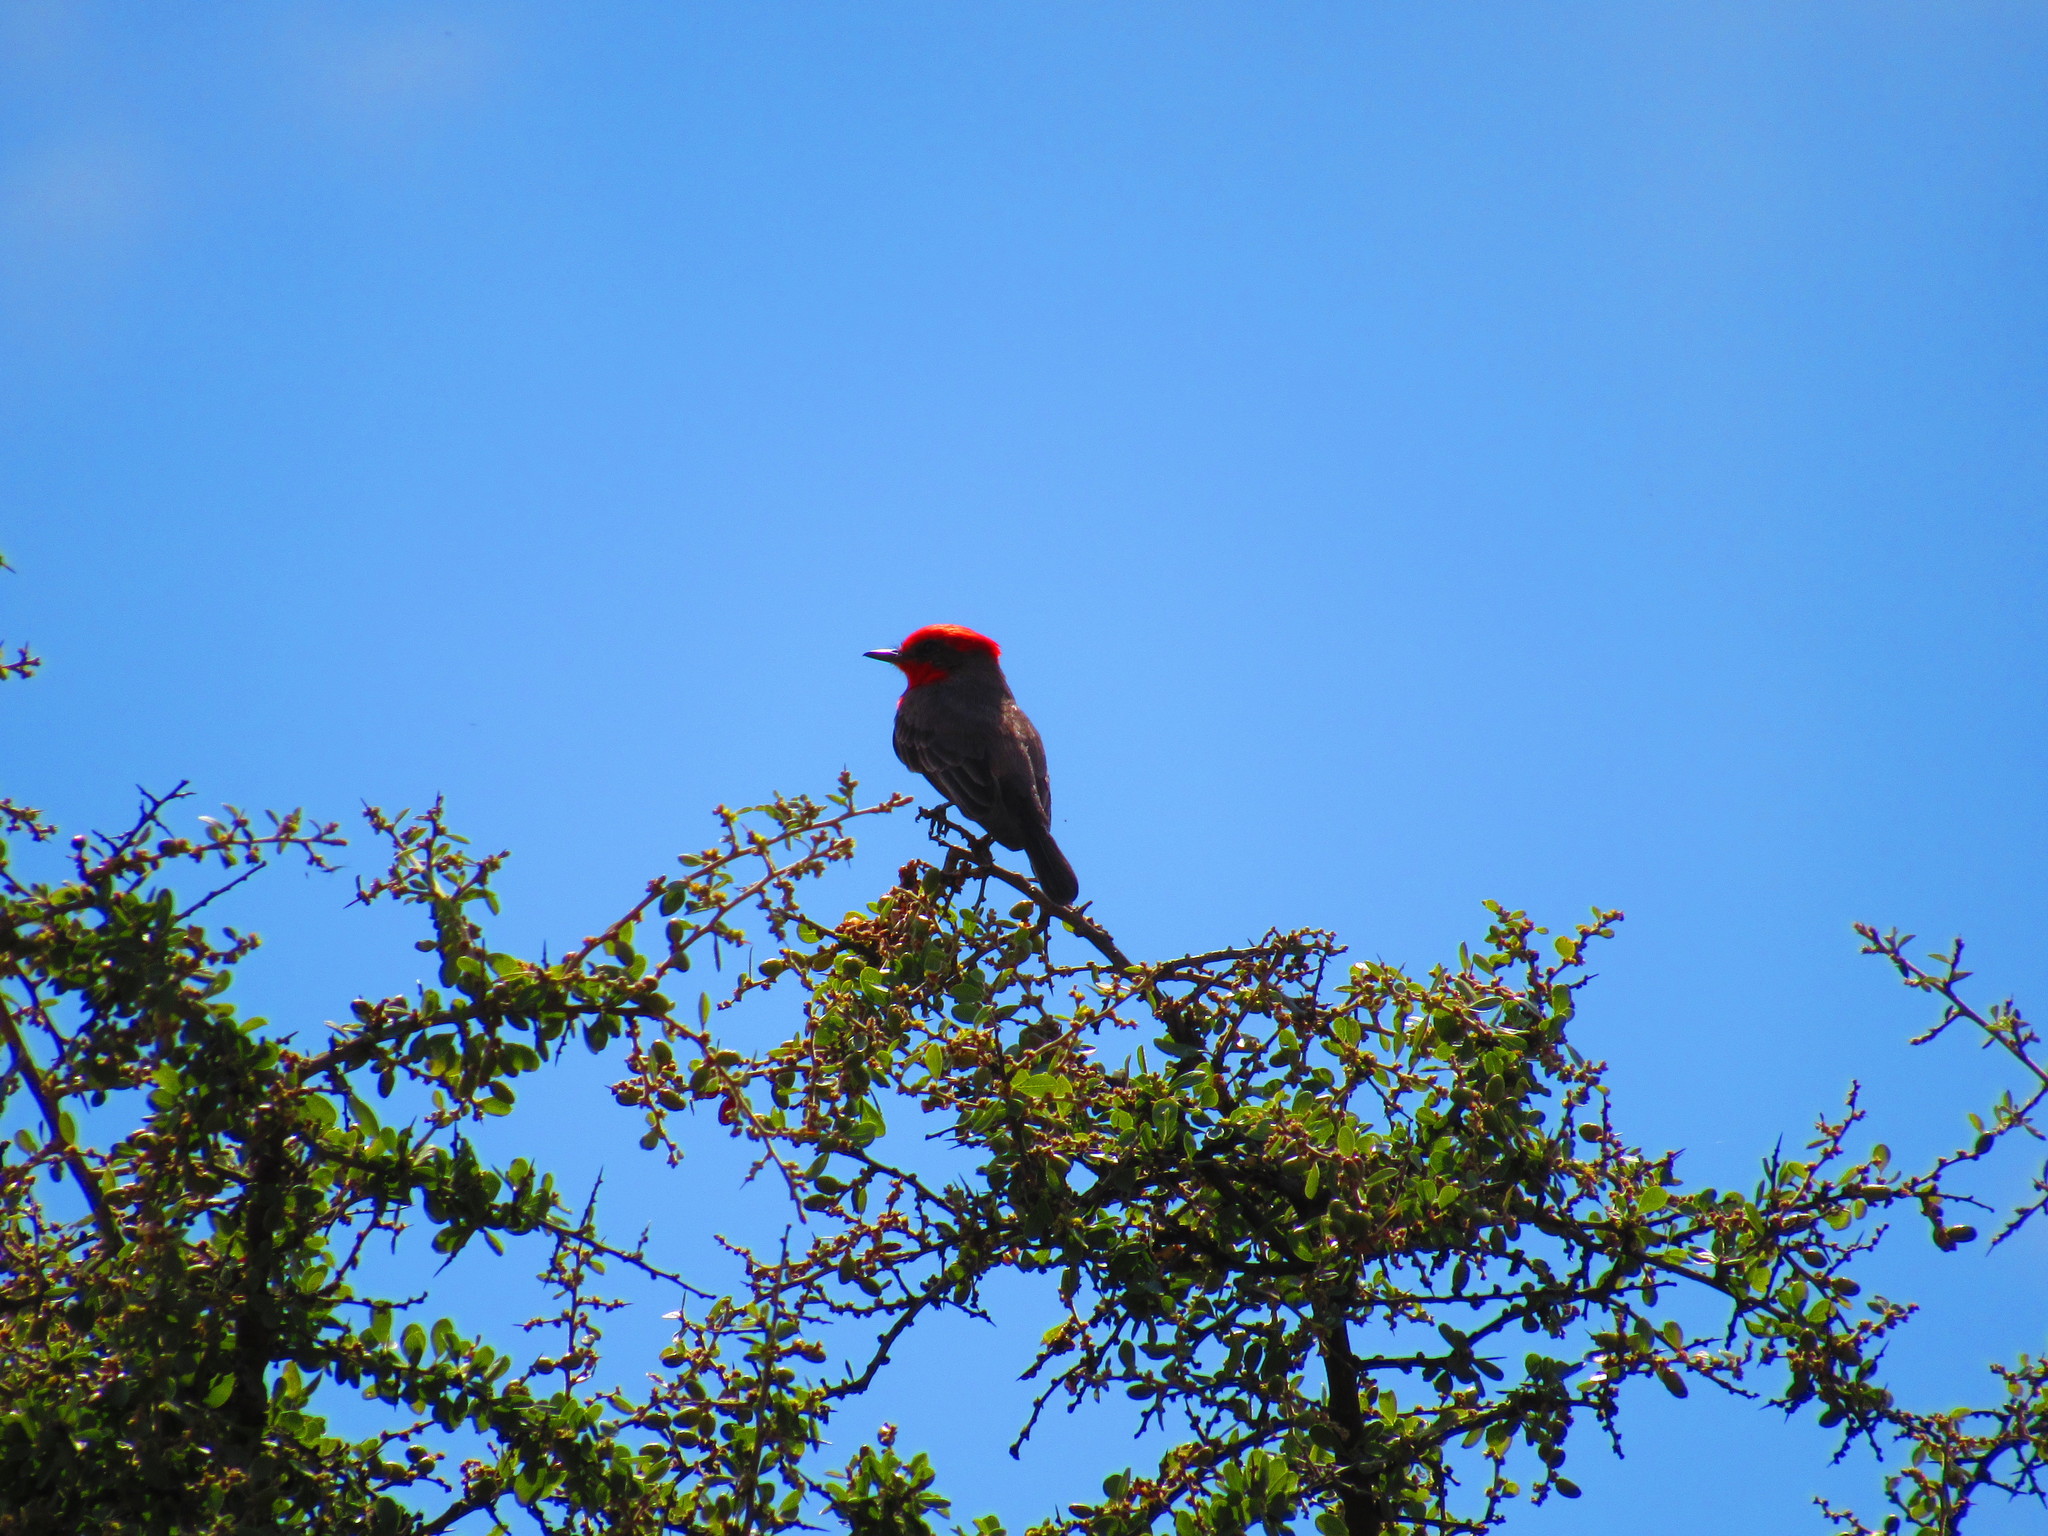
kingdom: Animalia
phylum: Chordata
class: Aves
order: Passeriformes
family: Tyrannidae
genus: Pyrocephalus
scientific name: Pyrocephalus rubinus
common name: Vermilion flycatcher
